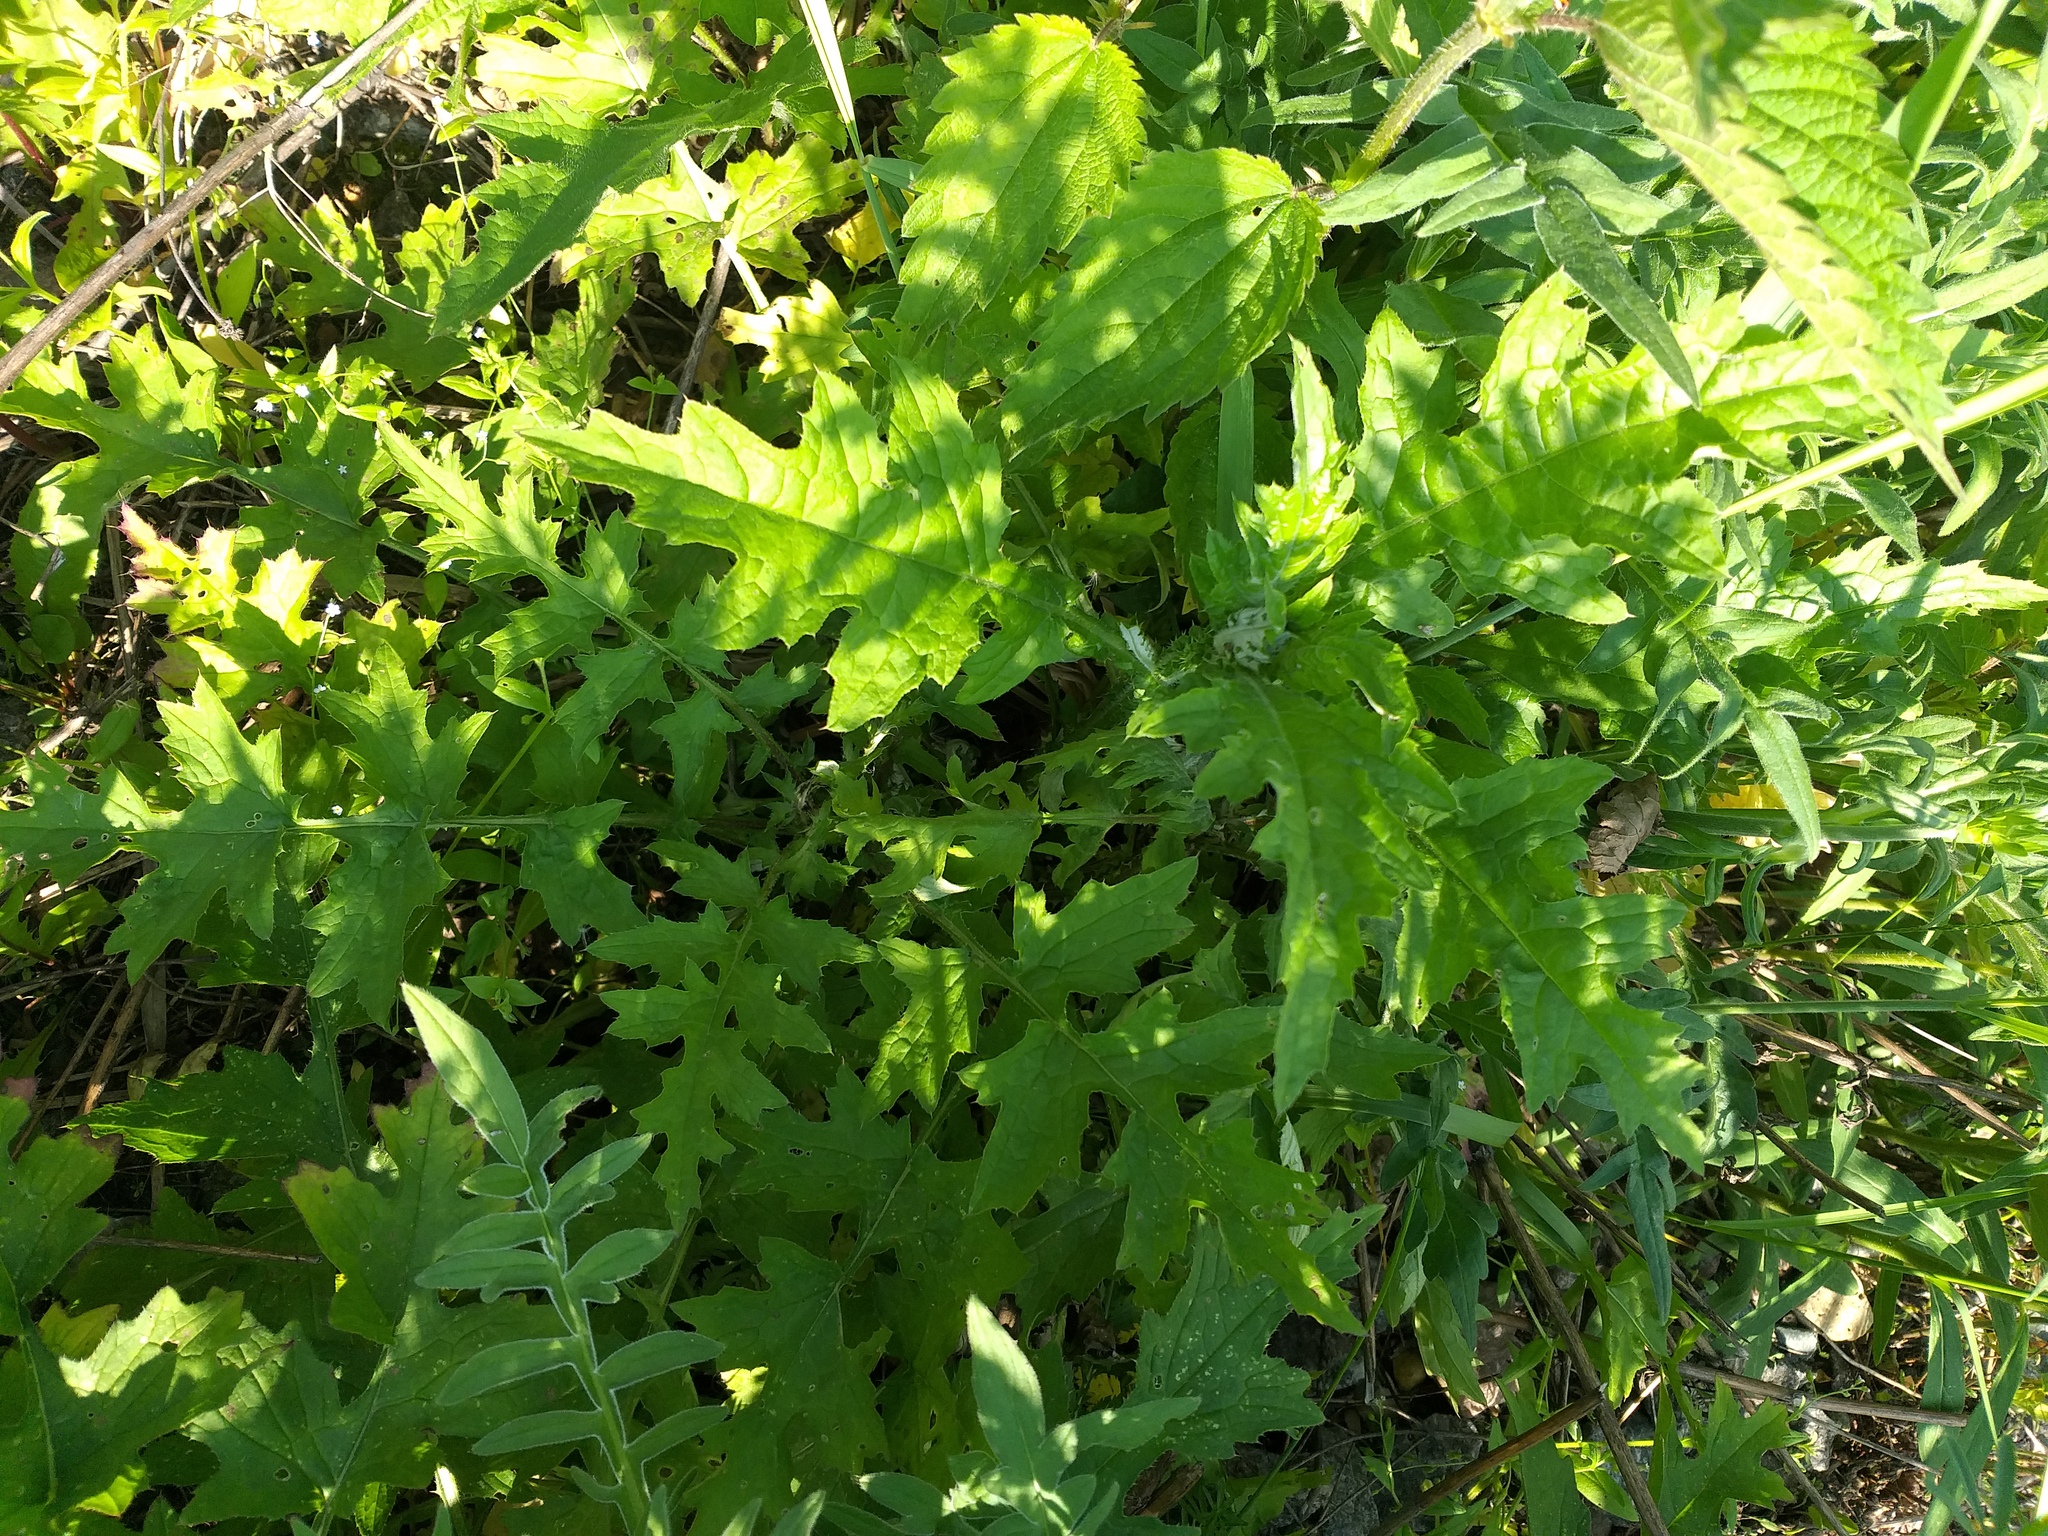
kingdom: Plantae
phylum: Tracheophyta
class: Magnoliopsida
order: Asterales
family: Asteraceae
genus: Carduus
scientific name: Carduus crispus
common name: Welted thistle
